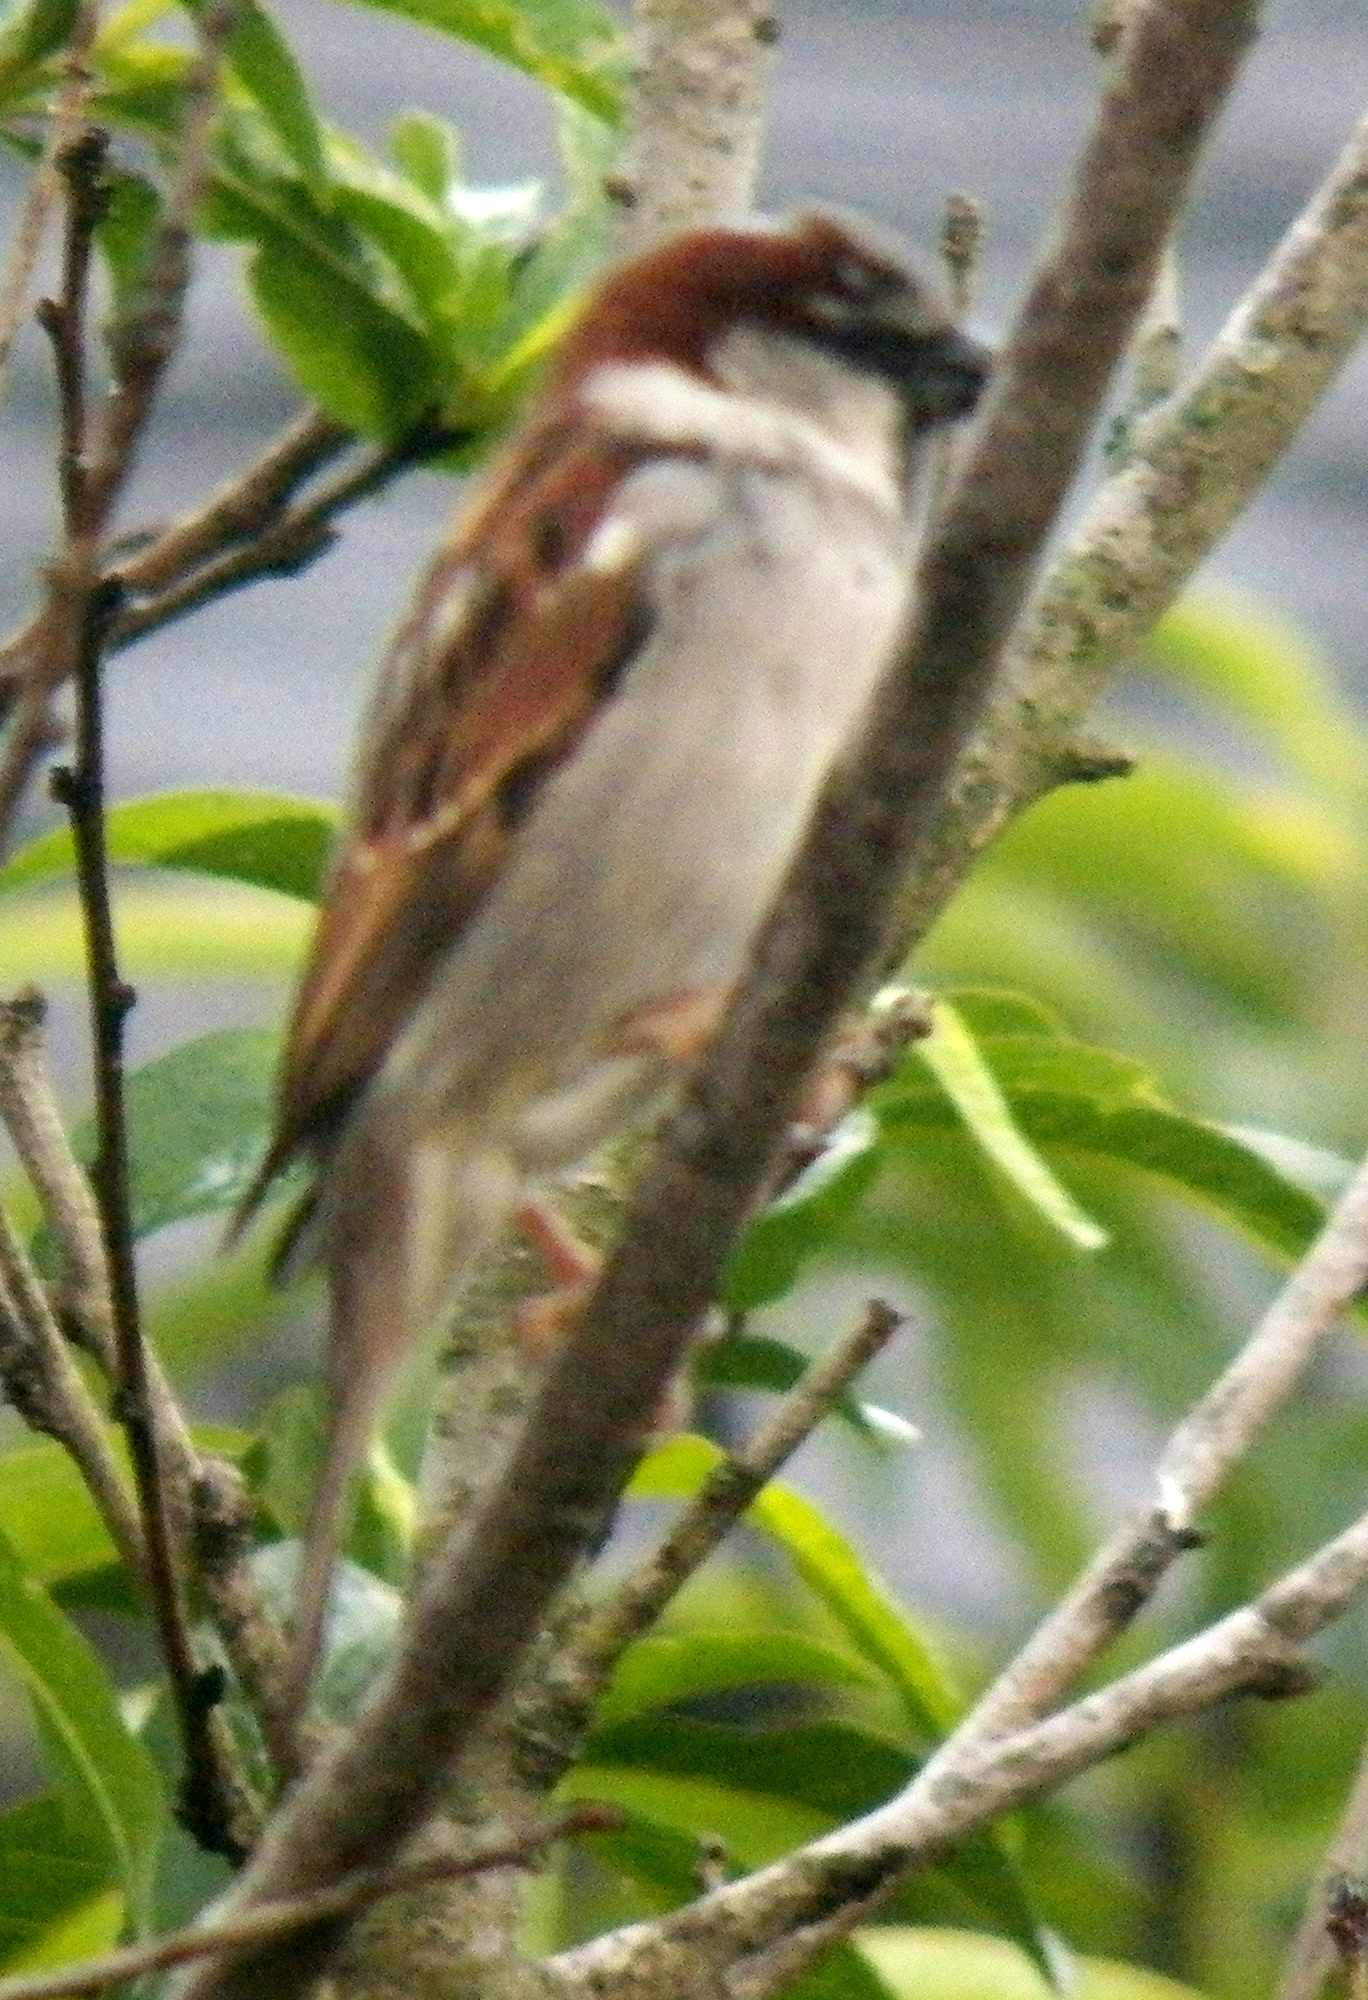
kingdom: Animalia
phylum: Chordata
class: Aves
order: Passeriformes
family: Passeridae
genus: Passer
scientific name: Passer domesticus
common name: House sparrow
